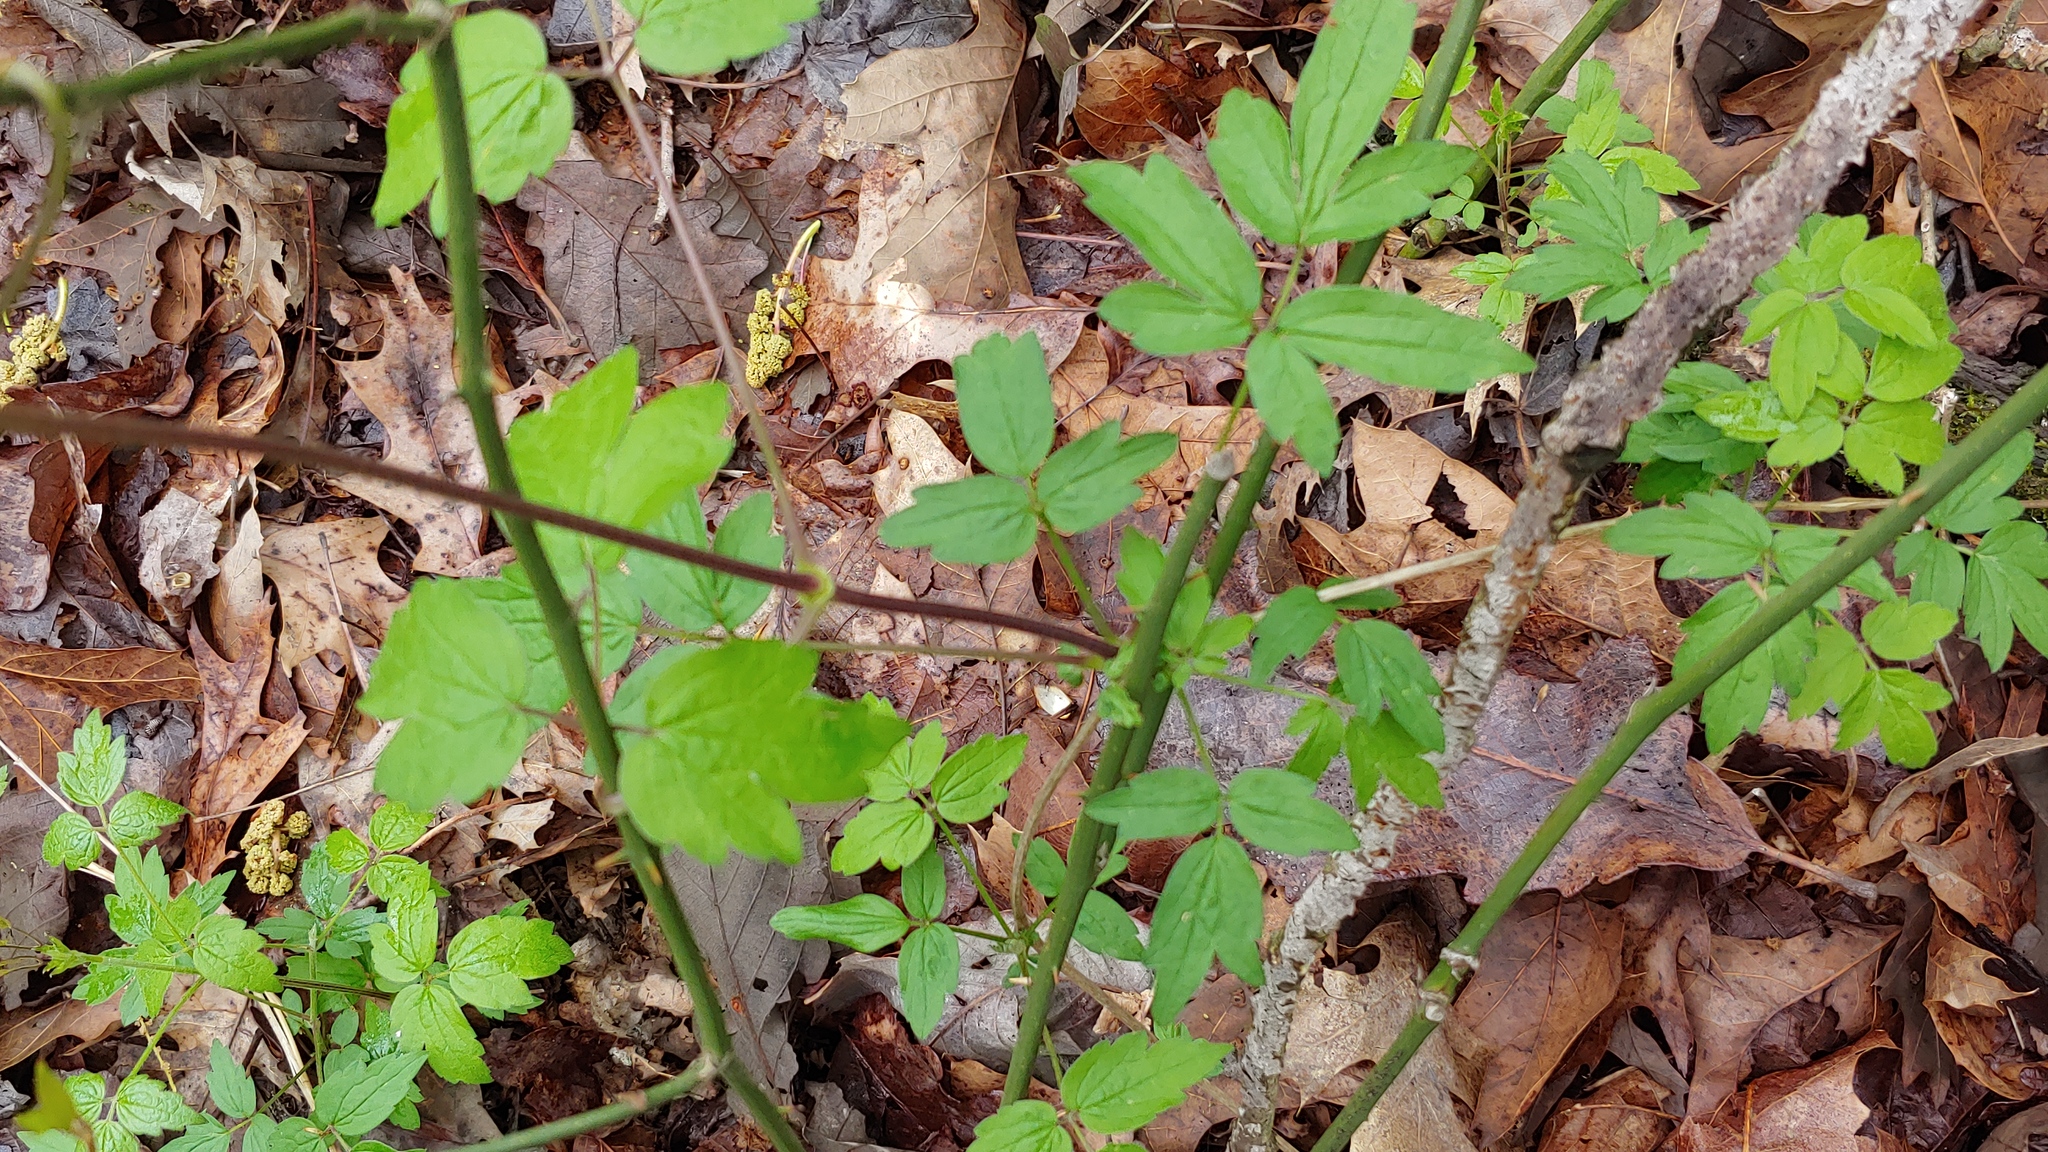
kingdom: Plantae
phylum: Tracheophyta
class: Magnoliopsida
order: Ranunculales
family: Ranunculaceae
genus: Clematis
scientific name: Clematis virginiana
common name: Virgin's-bower
